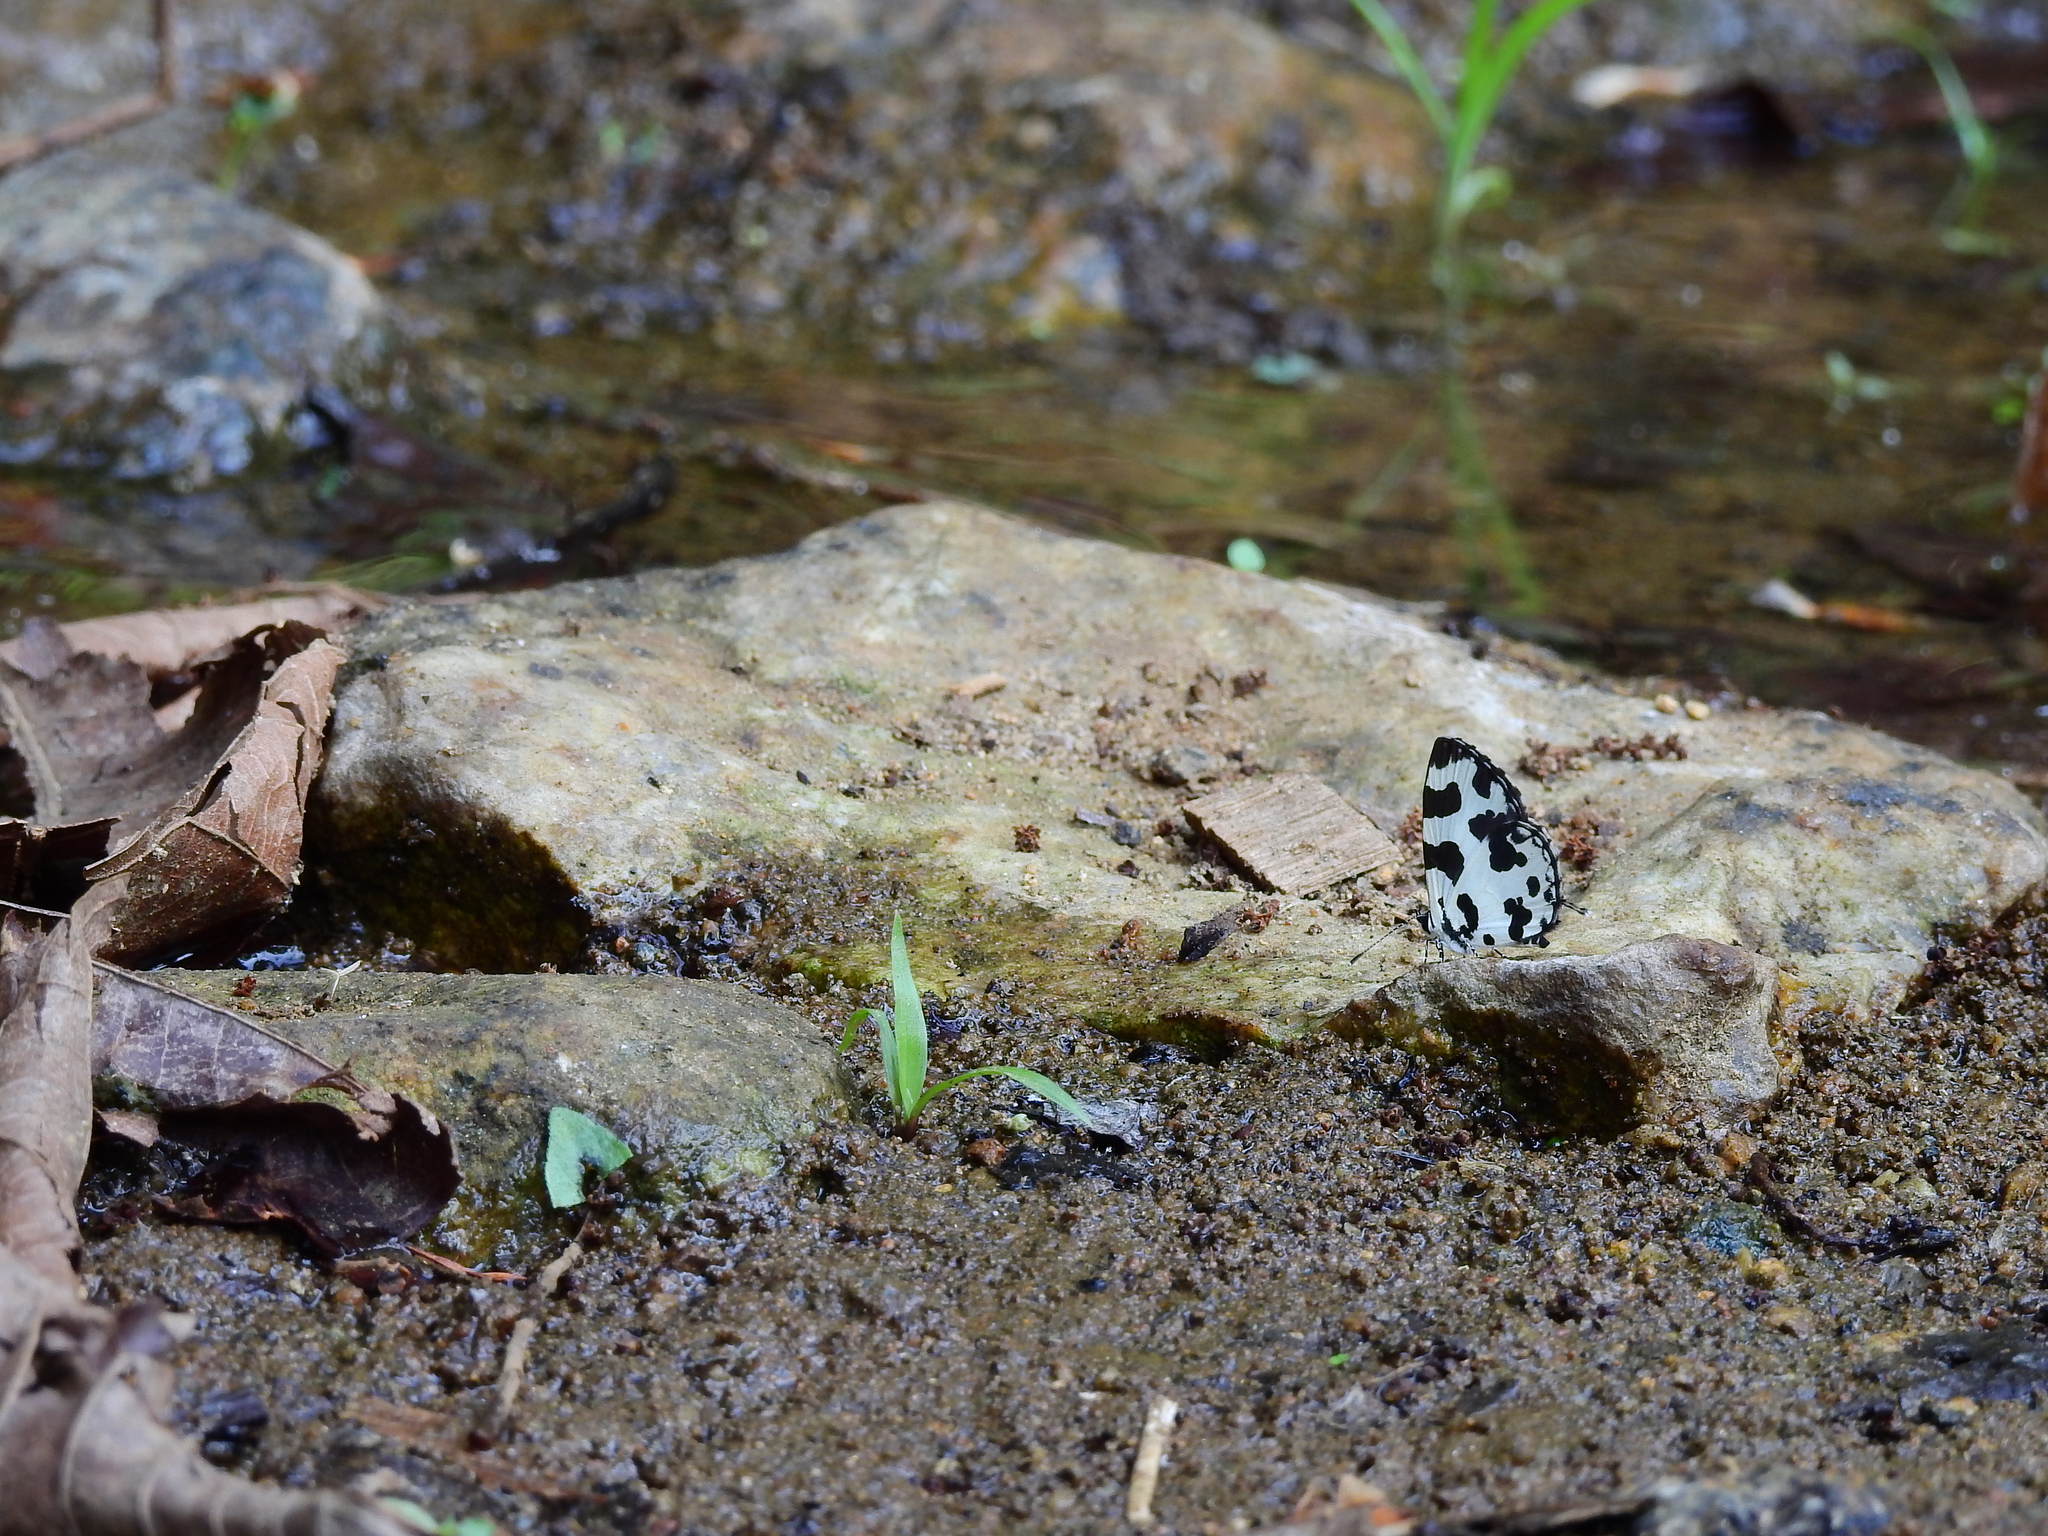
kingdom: Animalia
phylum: Arthropoda
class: Insecta
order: Lepidoptera
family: Lycaenidae
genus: Caleta
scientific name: Caleta decidia
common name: Angled pierrot
